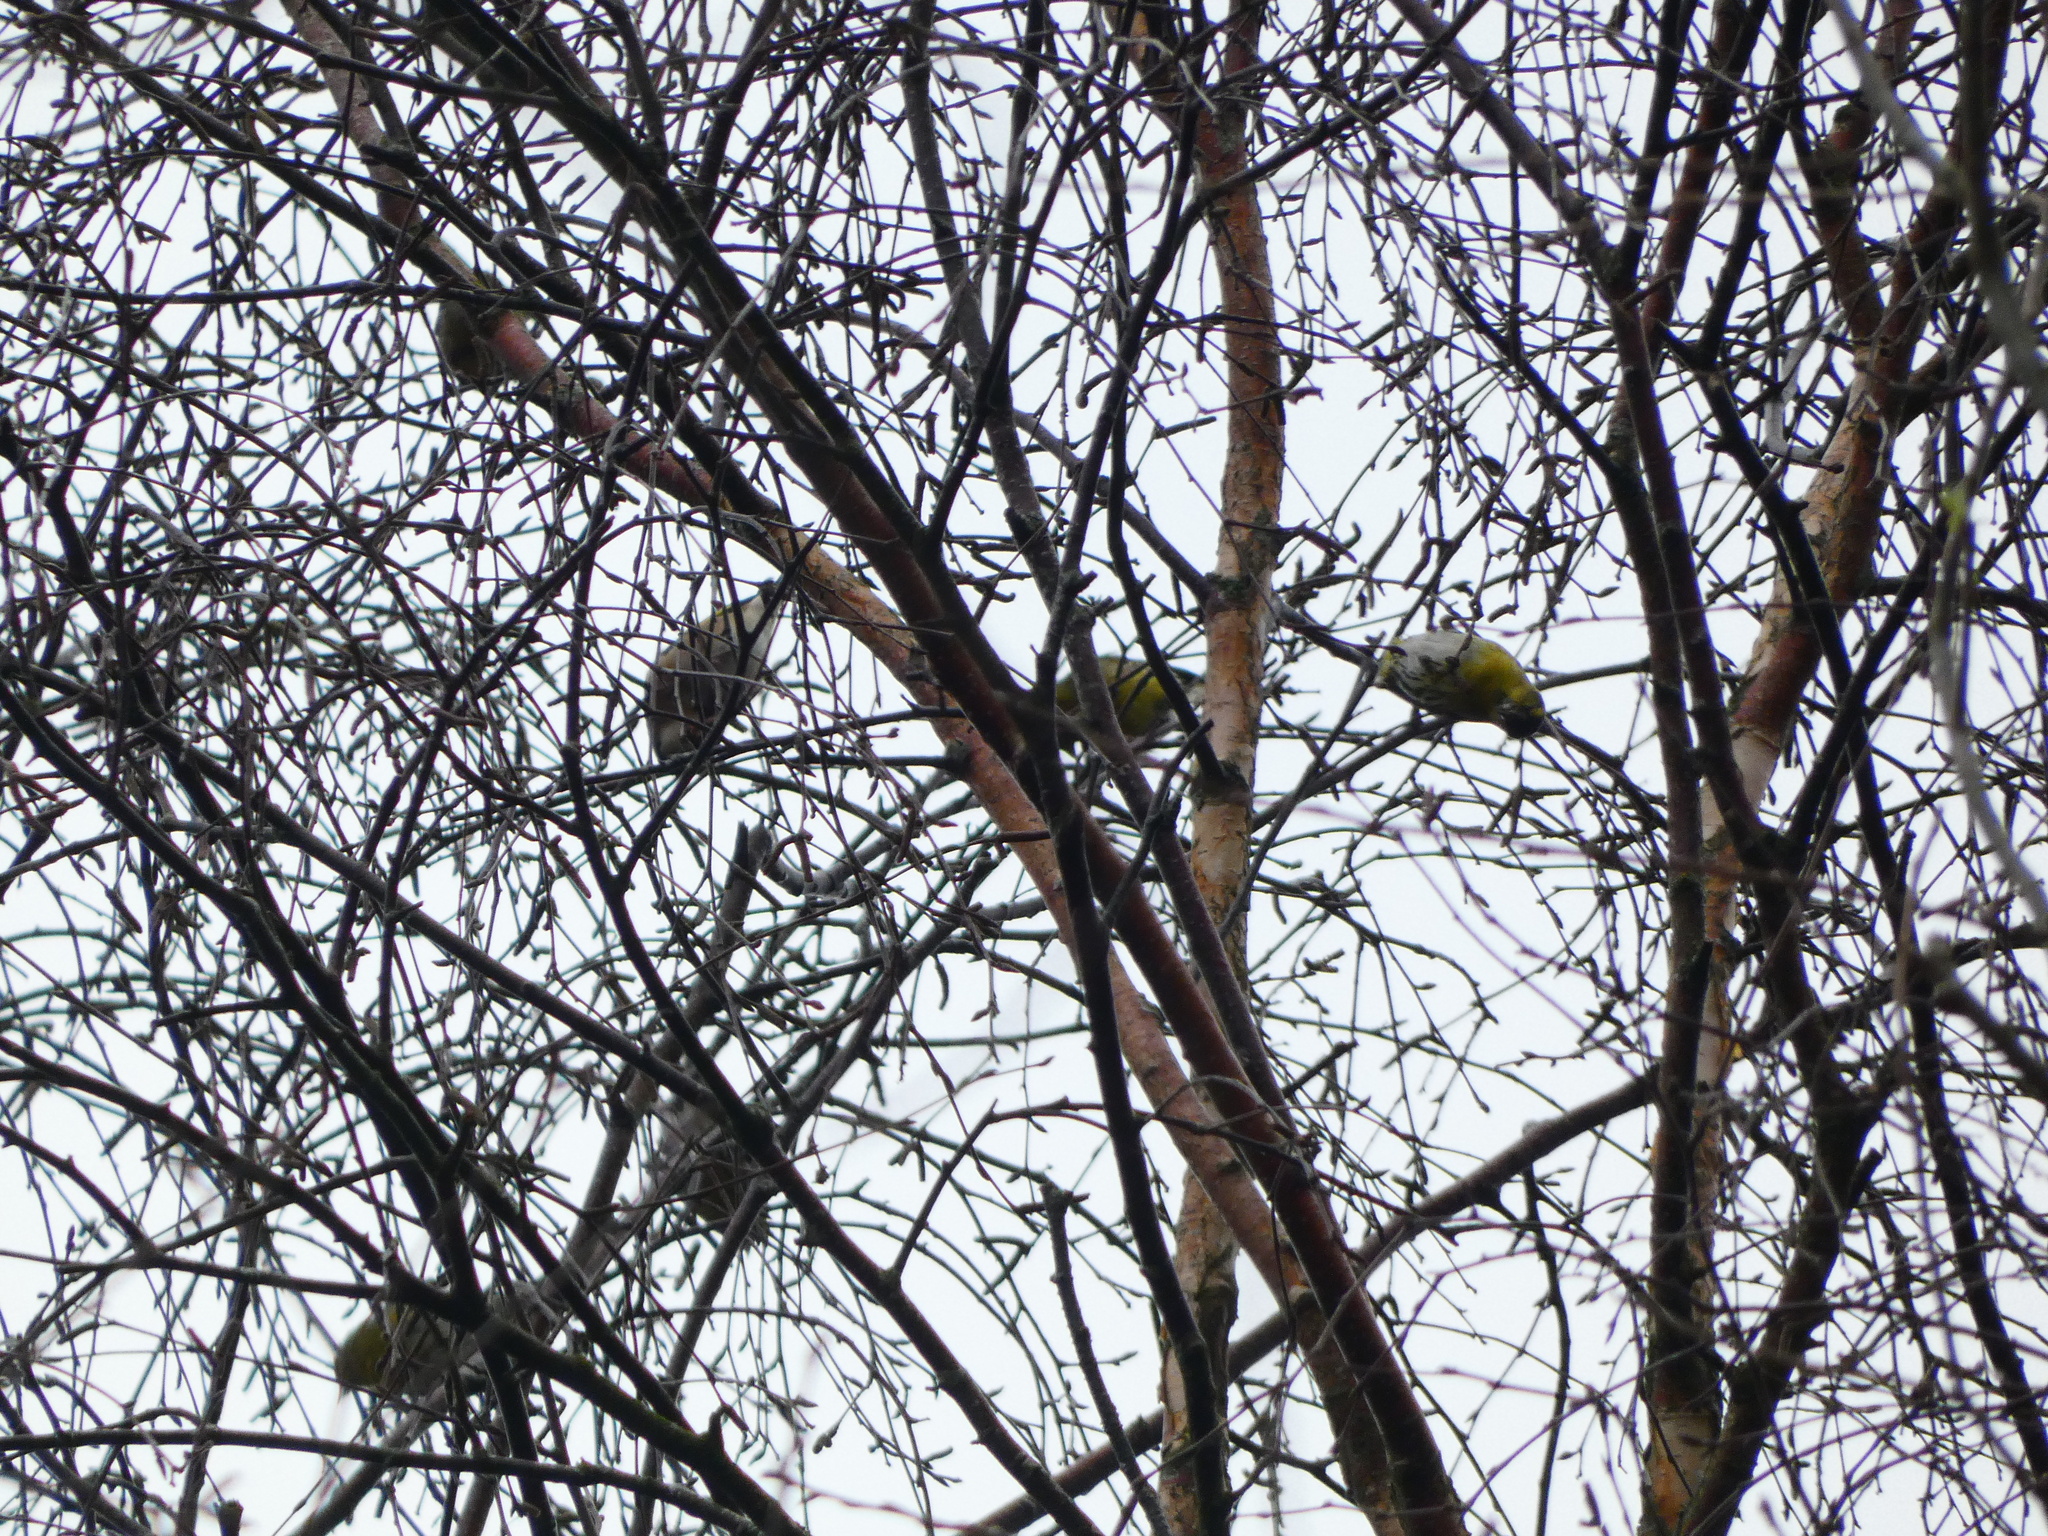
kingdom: Animalia
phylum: Chordata
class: Aves
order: Passeriformes
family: Fringillidae
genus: Spinus
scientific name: Spinus spinus
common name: Eurasian siskin
